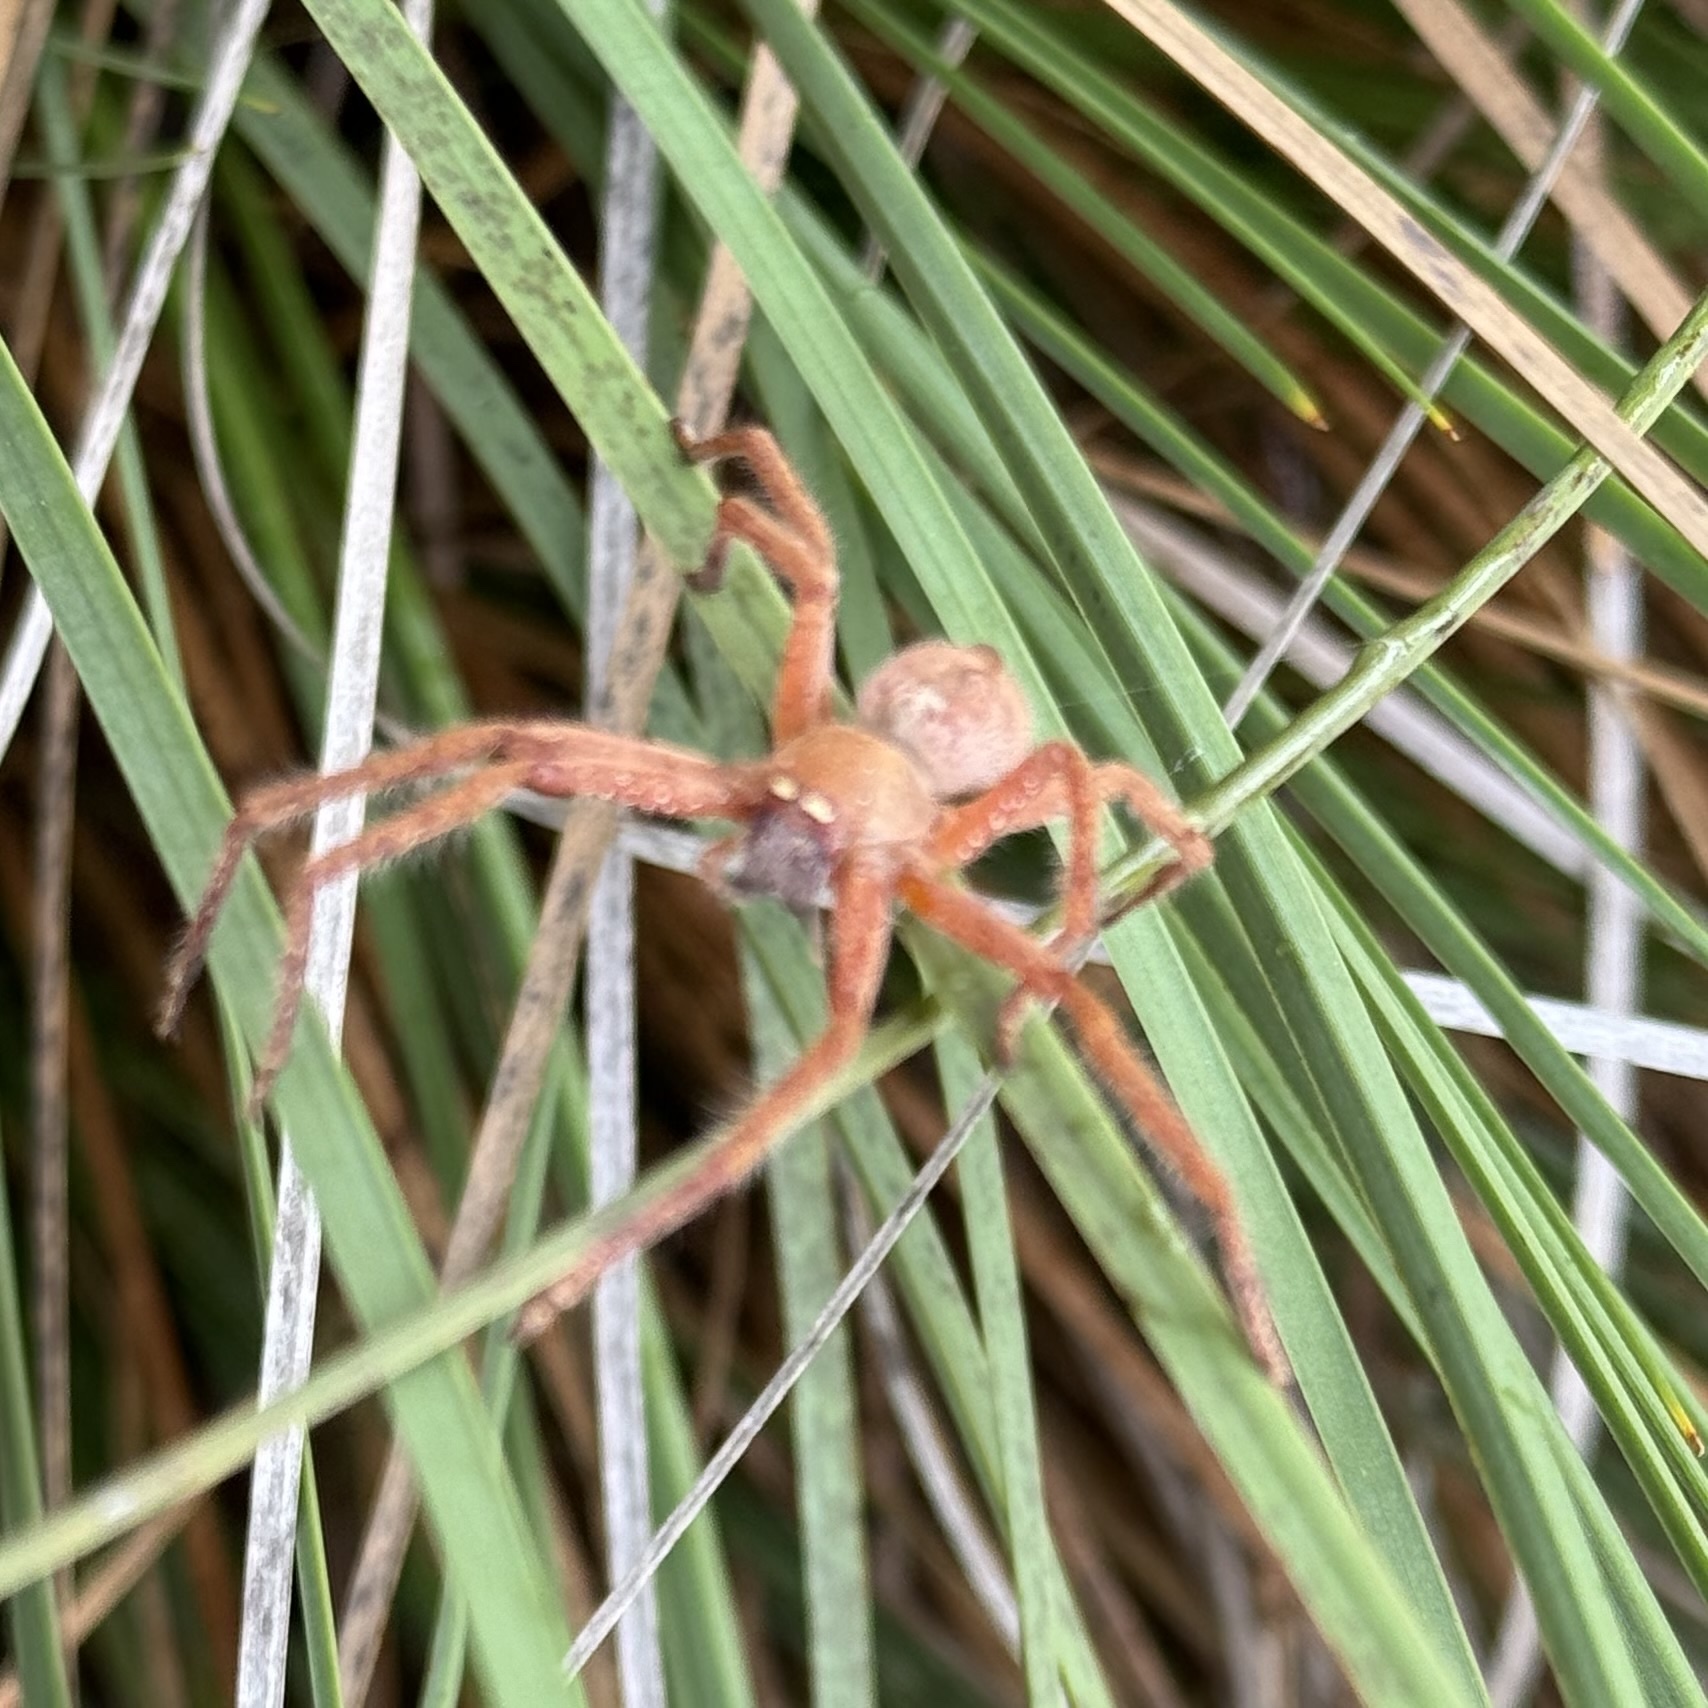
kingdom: Animalia
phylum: Arthropoda
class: Arachnida
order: Araneae
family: Sparassidae
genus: Neosparassus
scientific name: Neosparassus diana
